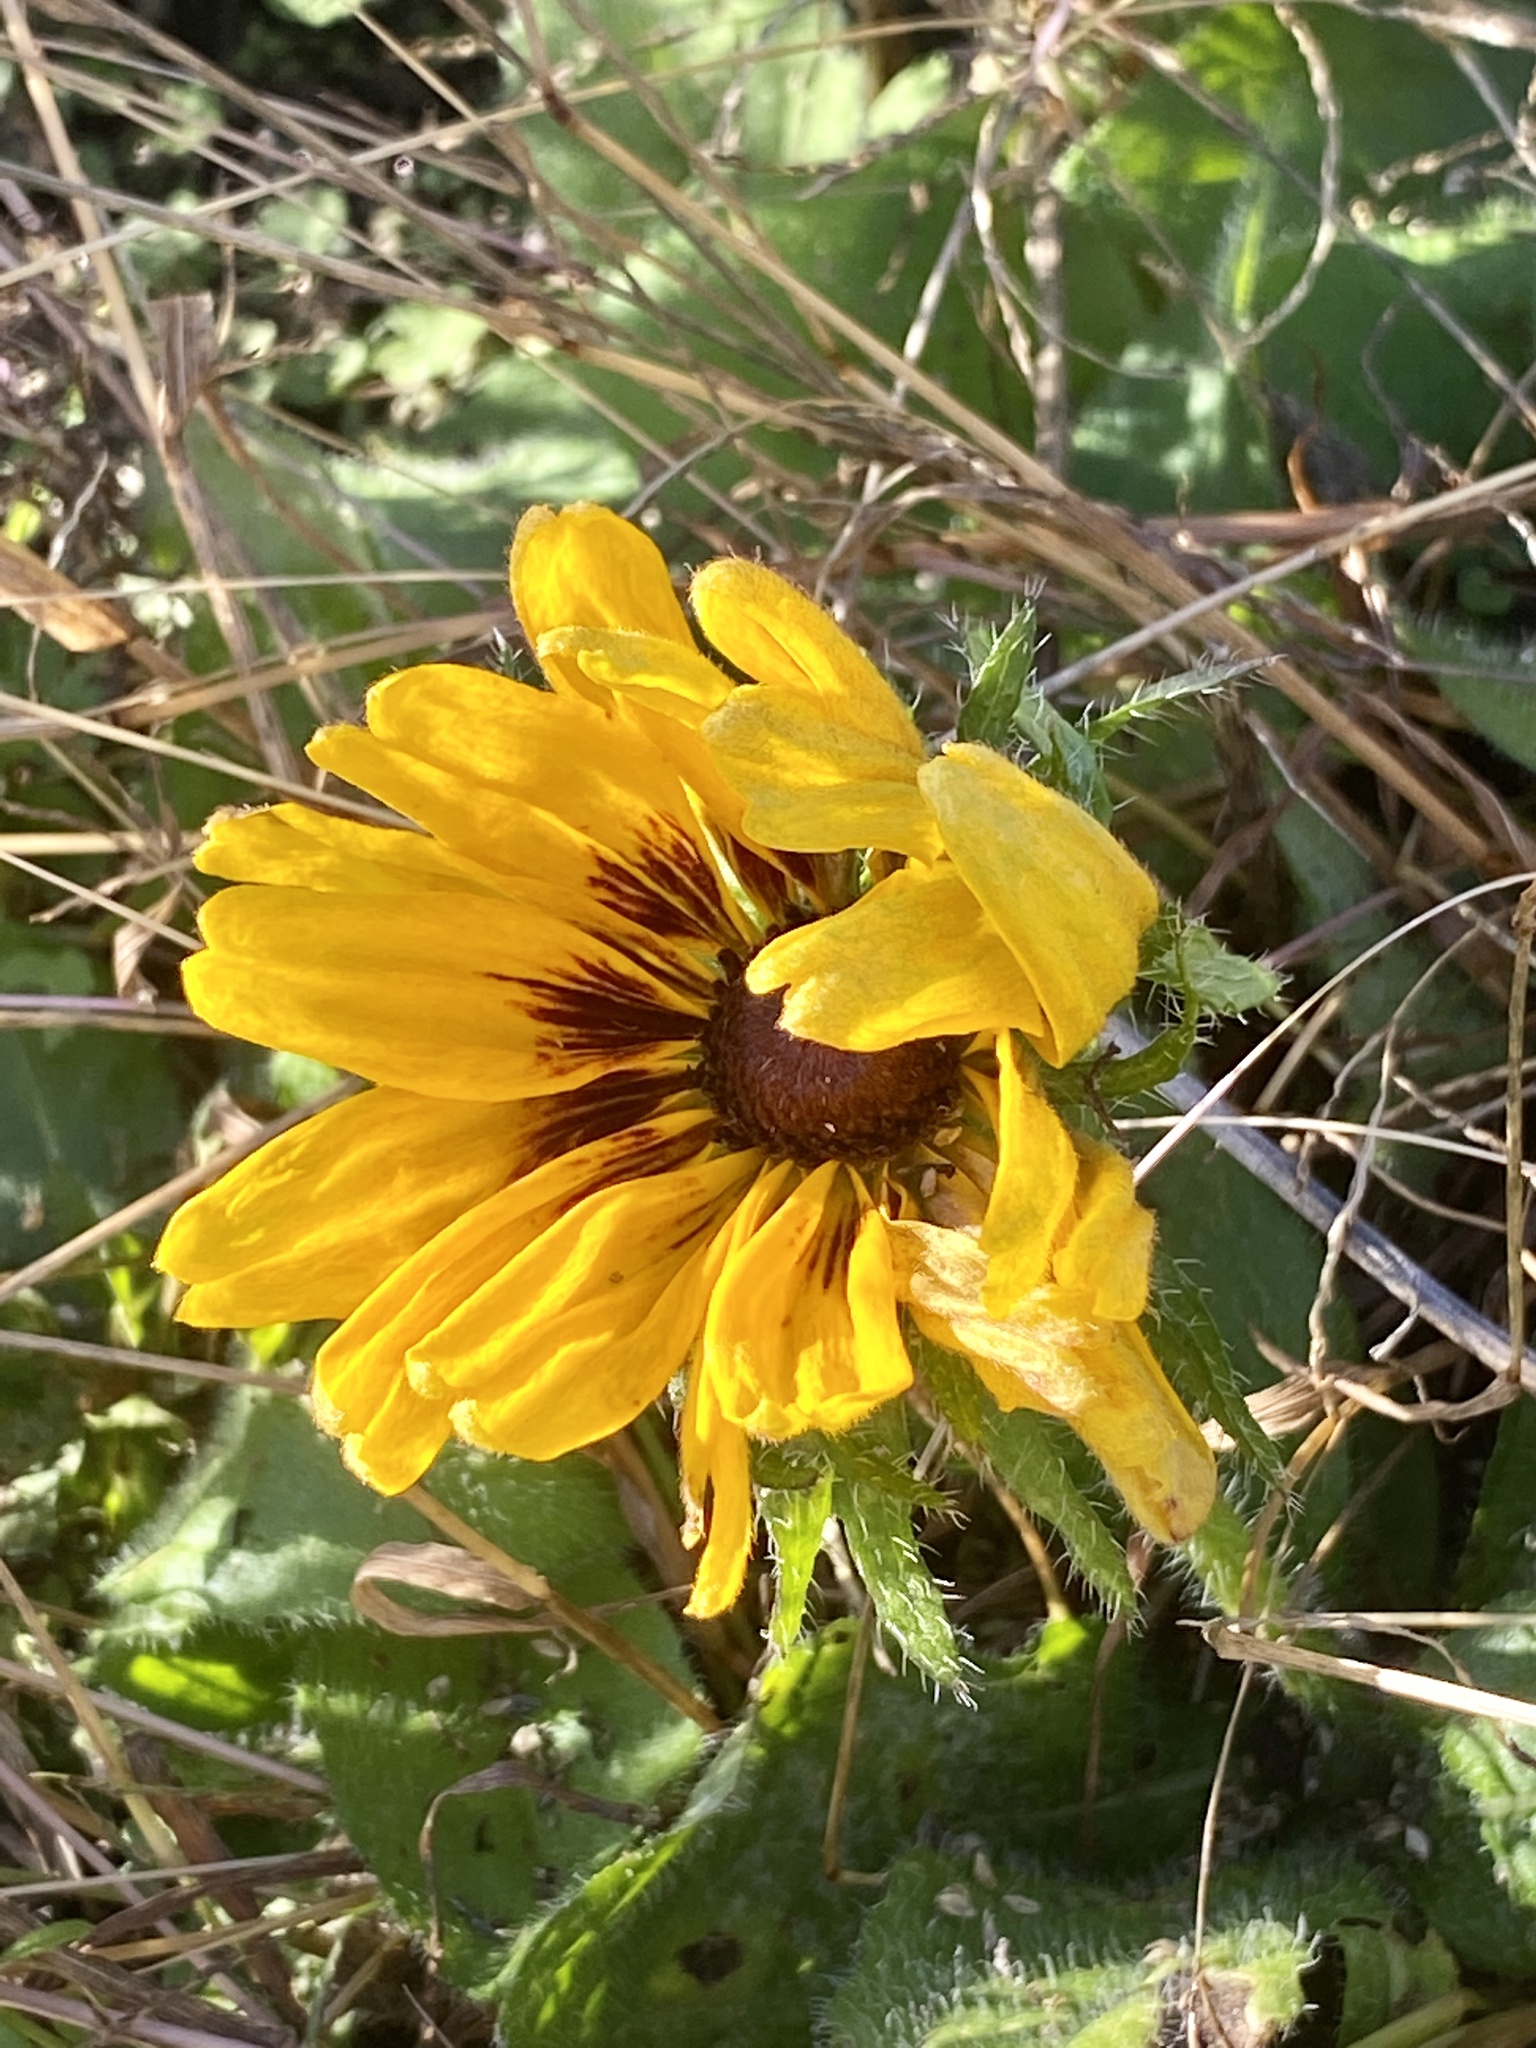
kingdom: Plantae
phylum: Tracheophyta
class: Magnoliopsida
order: Asterales
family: Asteraceae
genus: Rudbeckia
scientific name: Rudbeckia hirta
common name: Black-eyed-susan
